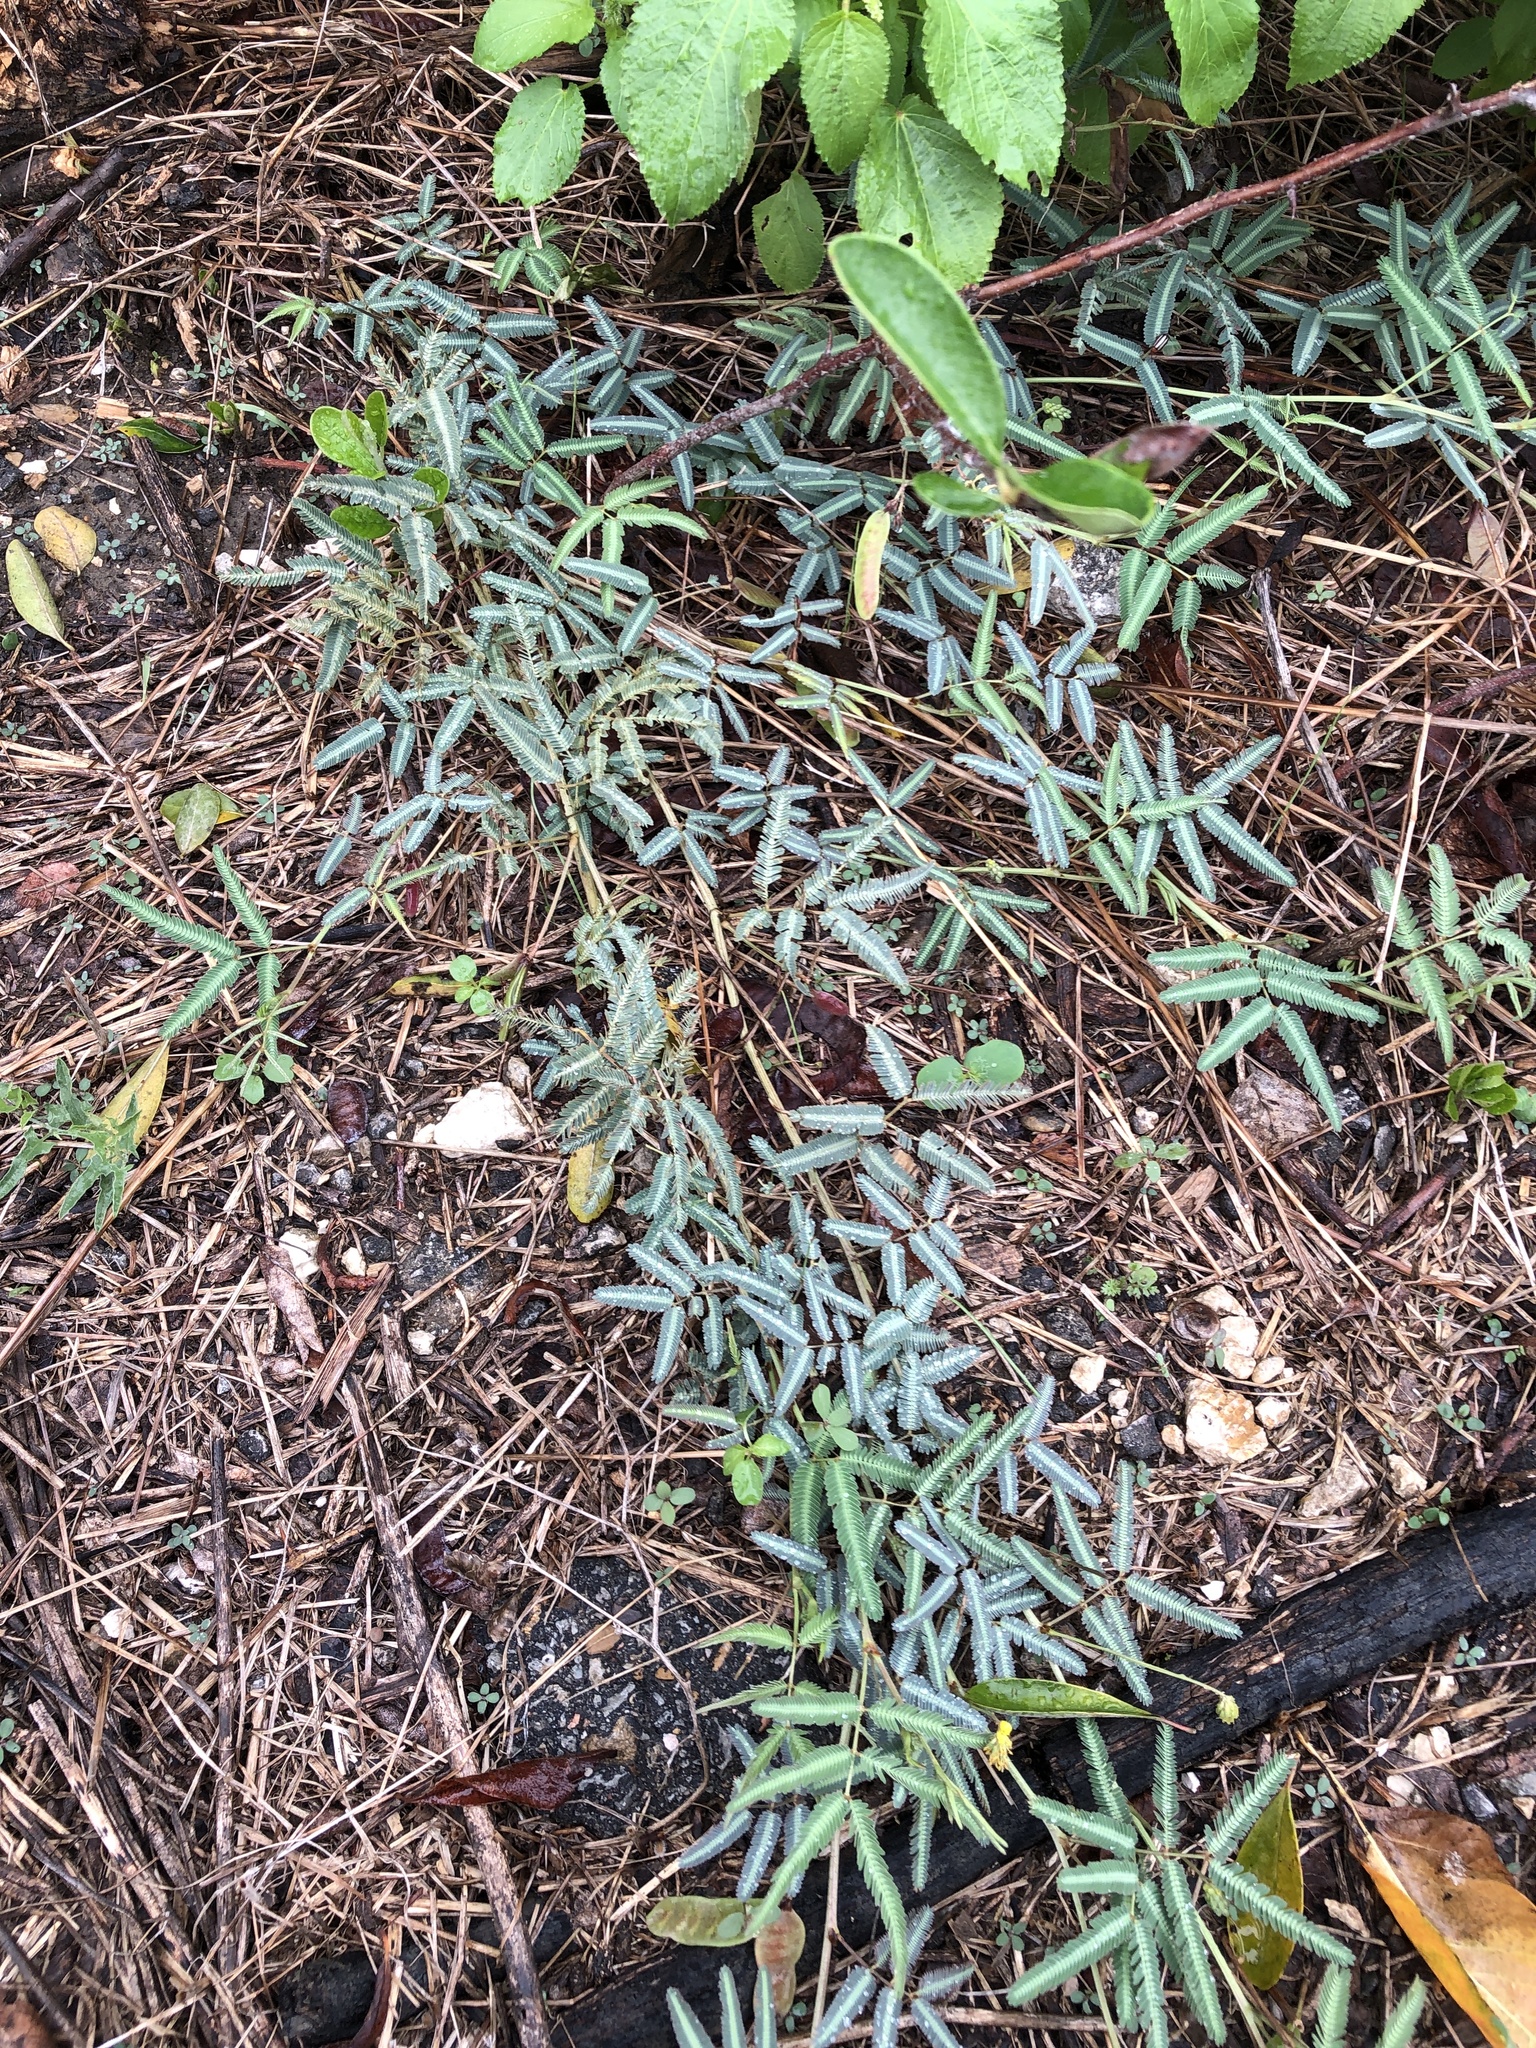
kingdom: Plantae
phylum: Tracheophyta
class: Magnoliopsida
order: Fabales
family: Fabaceae
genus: Neptunia
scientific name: Neptunia pubescens
